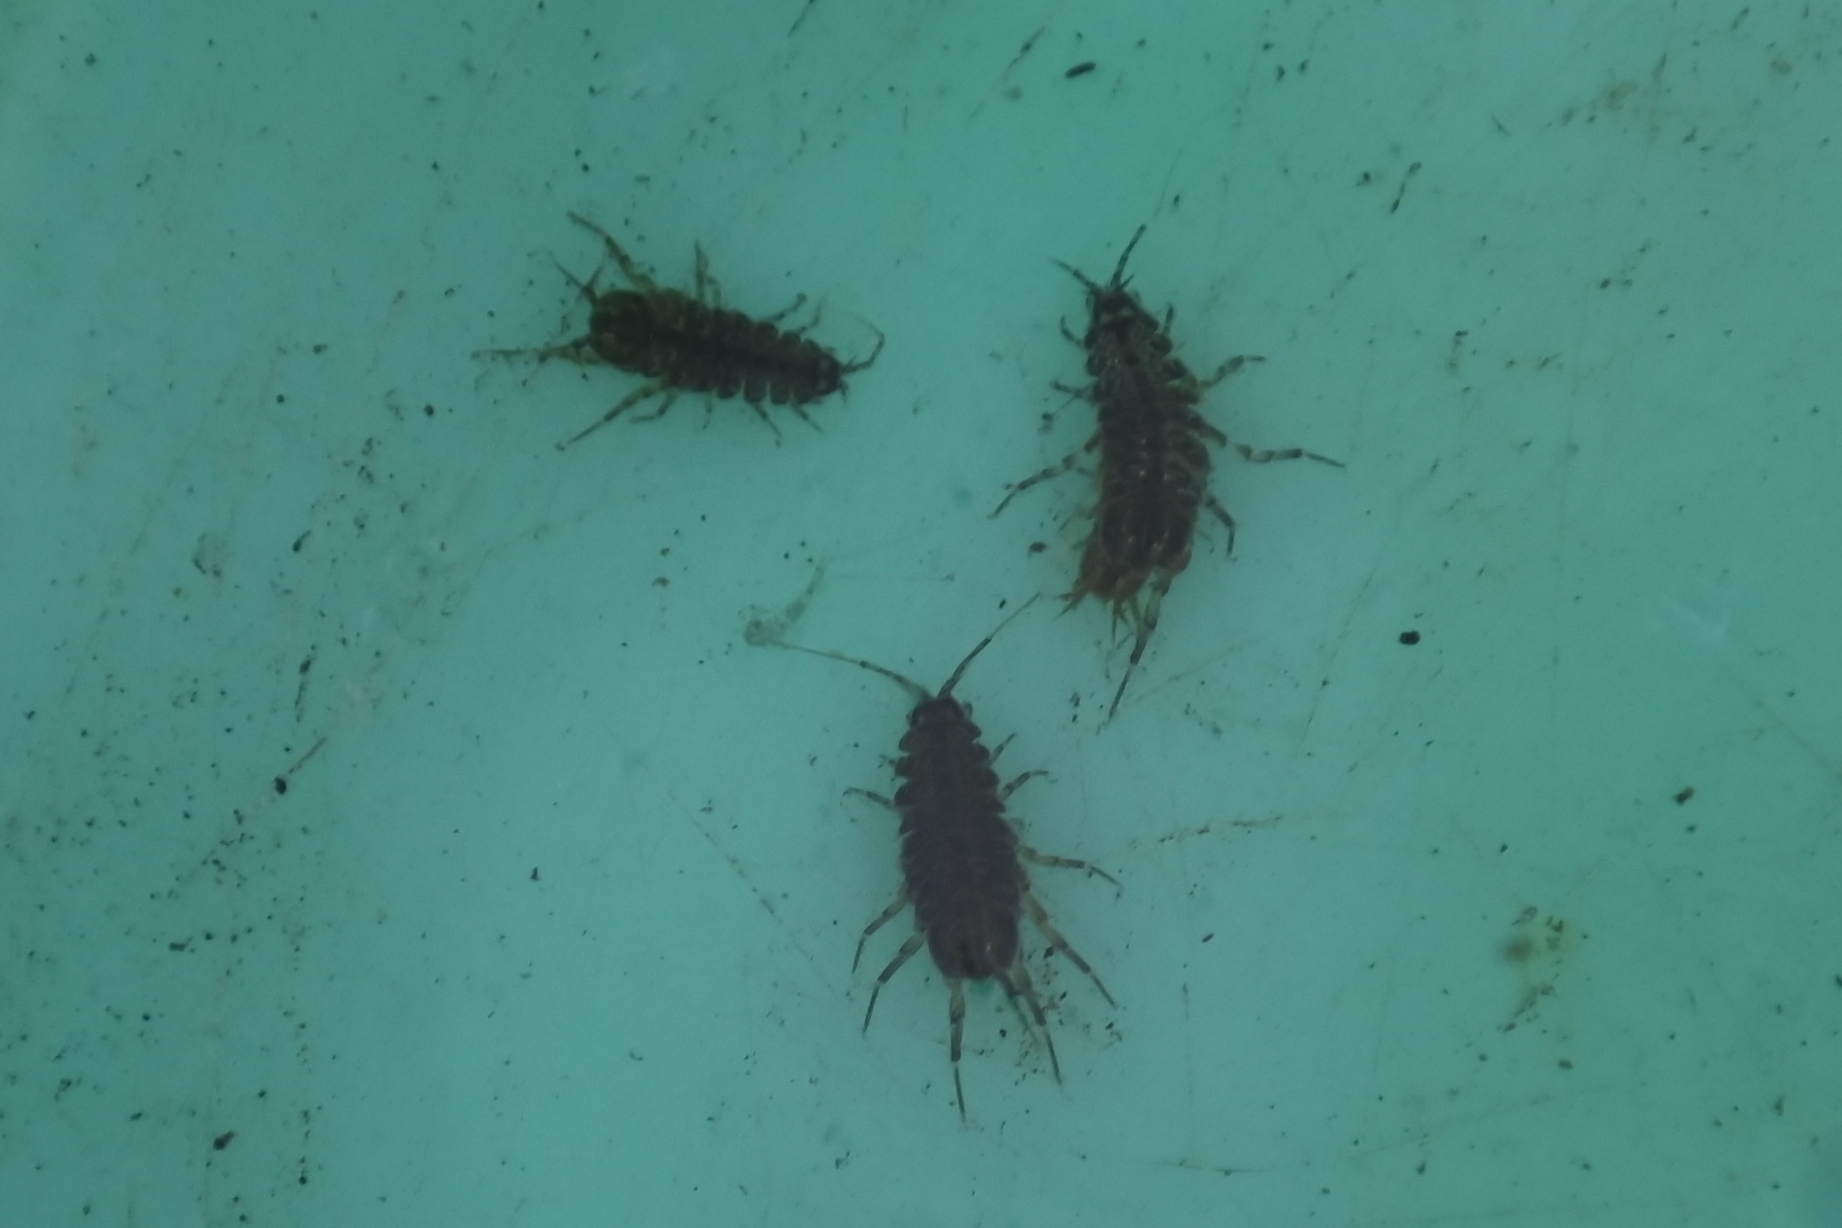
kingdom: Animalia
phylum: Arthropoda
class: Malacostraca
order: Isopoda
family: Asellidae
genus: Asellus
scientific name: Asellus aquaticus
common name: Water hog lice/slaters
